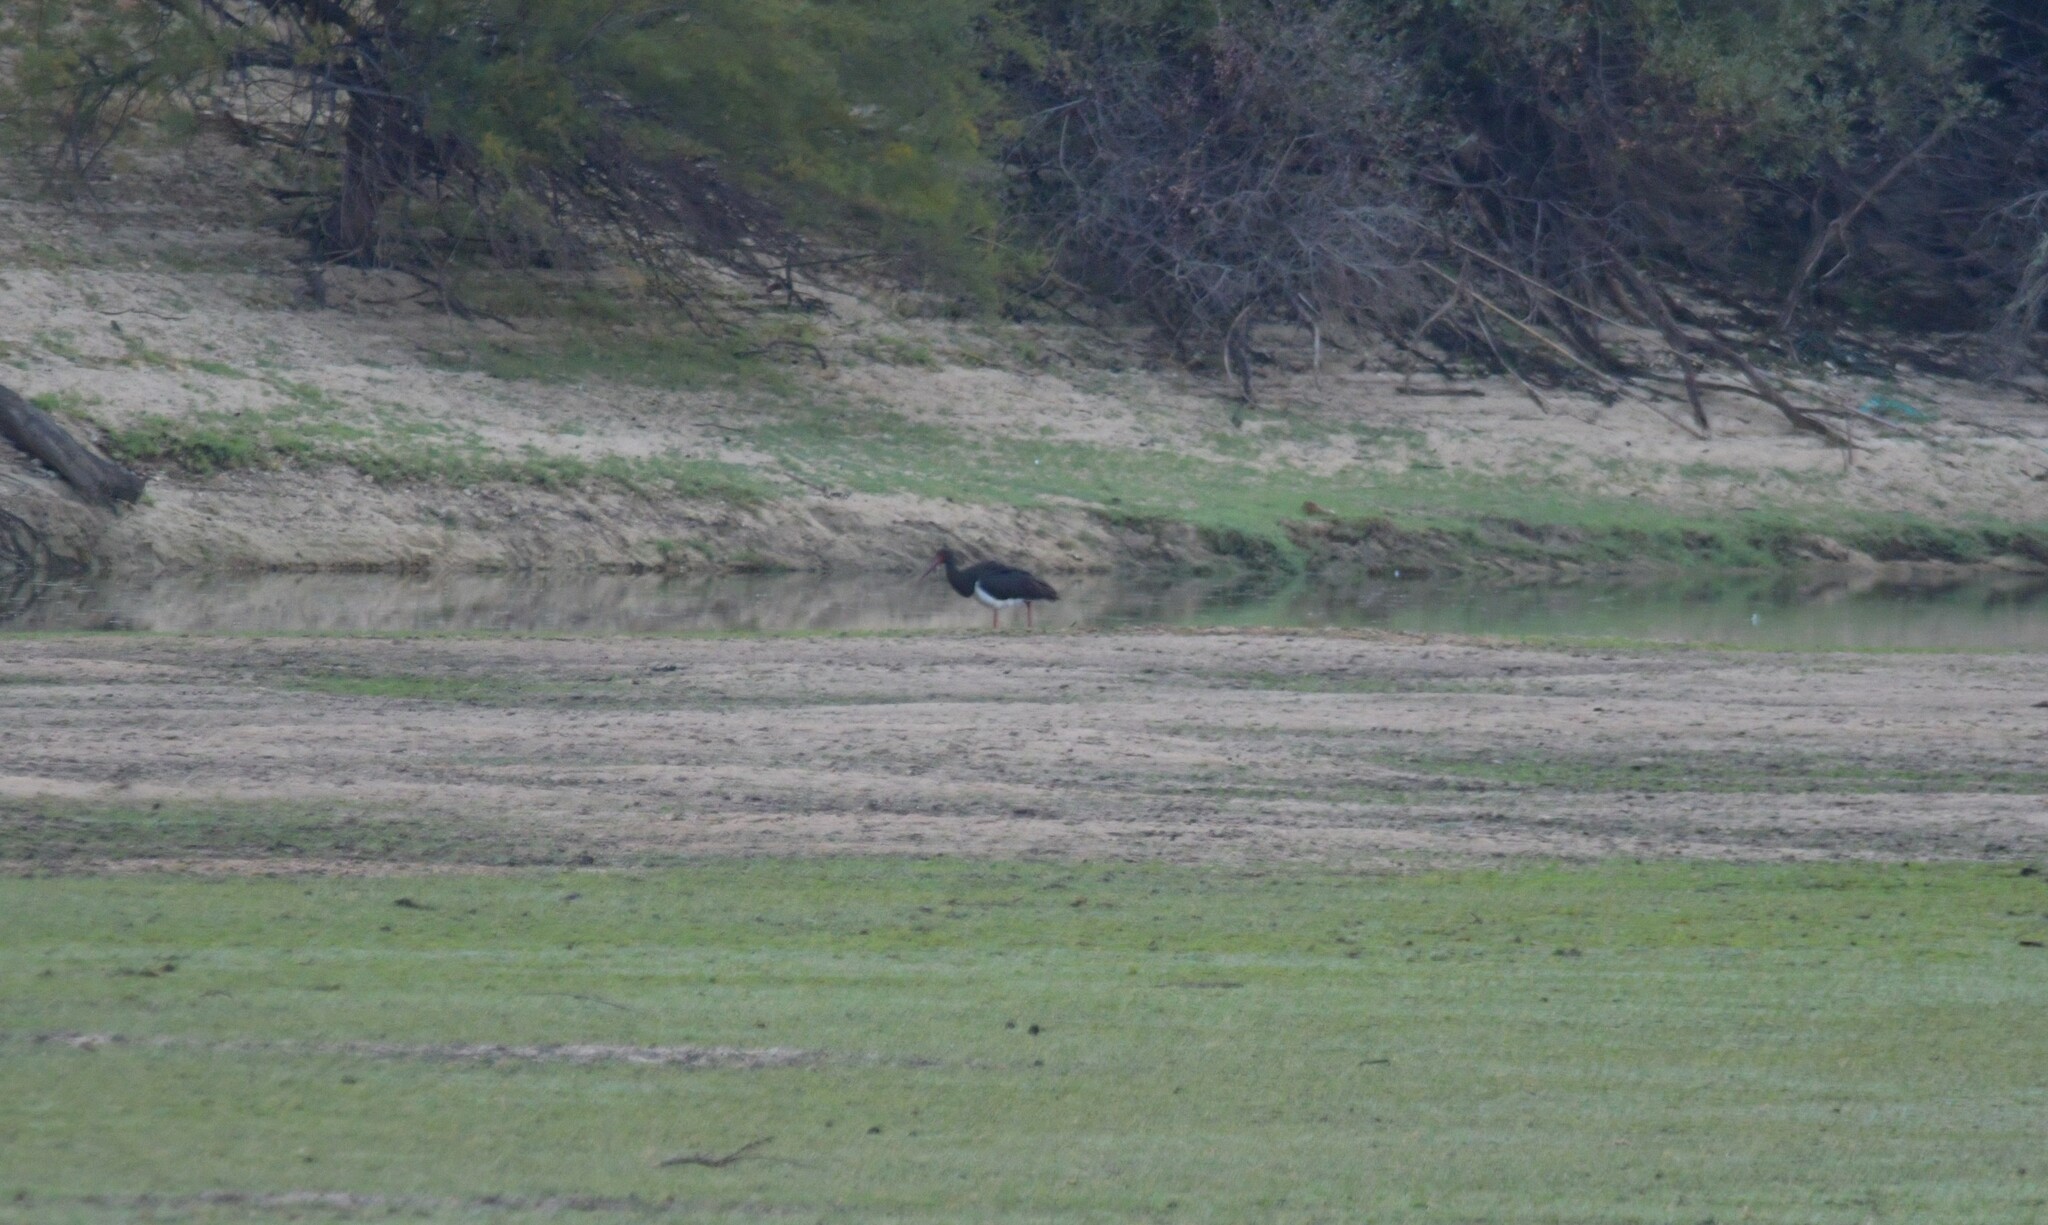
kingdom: Animalia
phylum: Chordata
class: Aves
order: Ciconiiformes
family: Ciconiidae
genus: Ciconia
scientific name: Ciconia nigra
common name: Black stork
